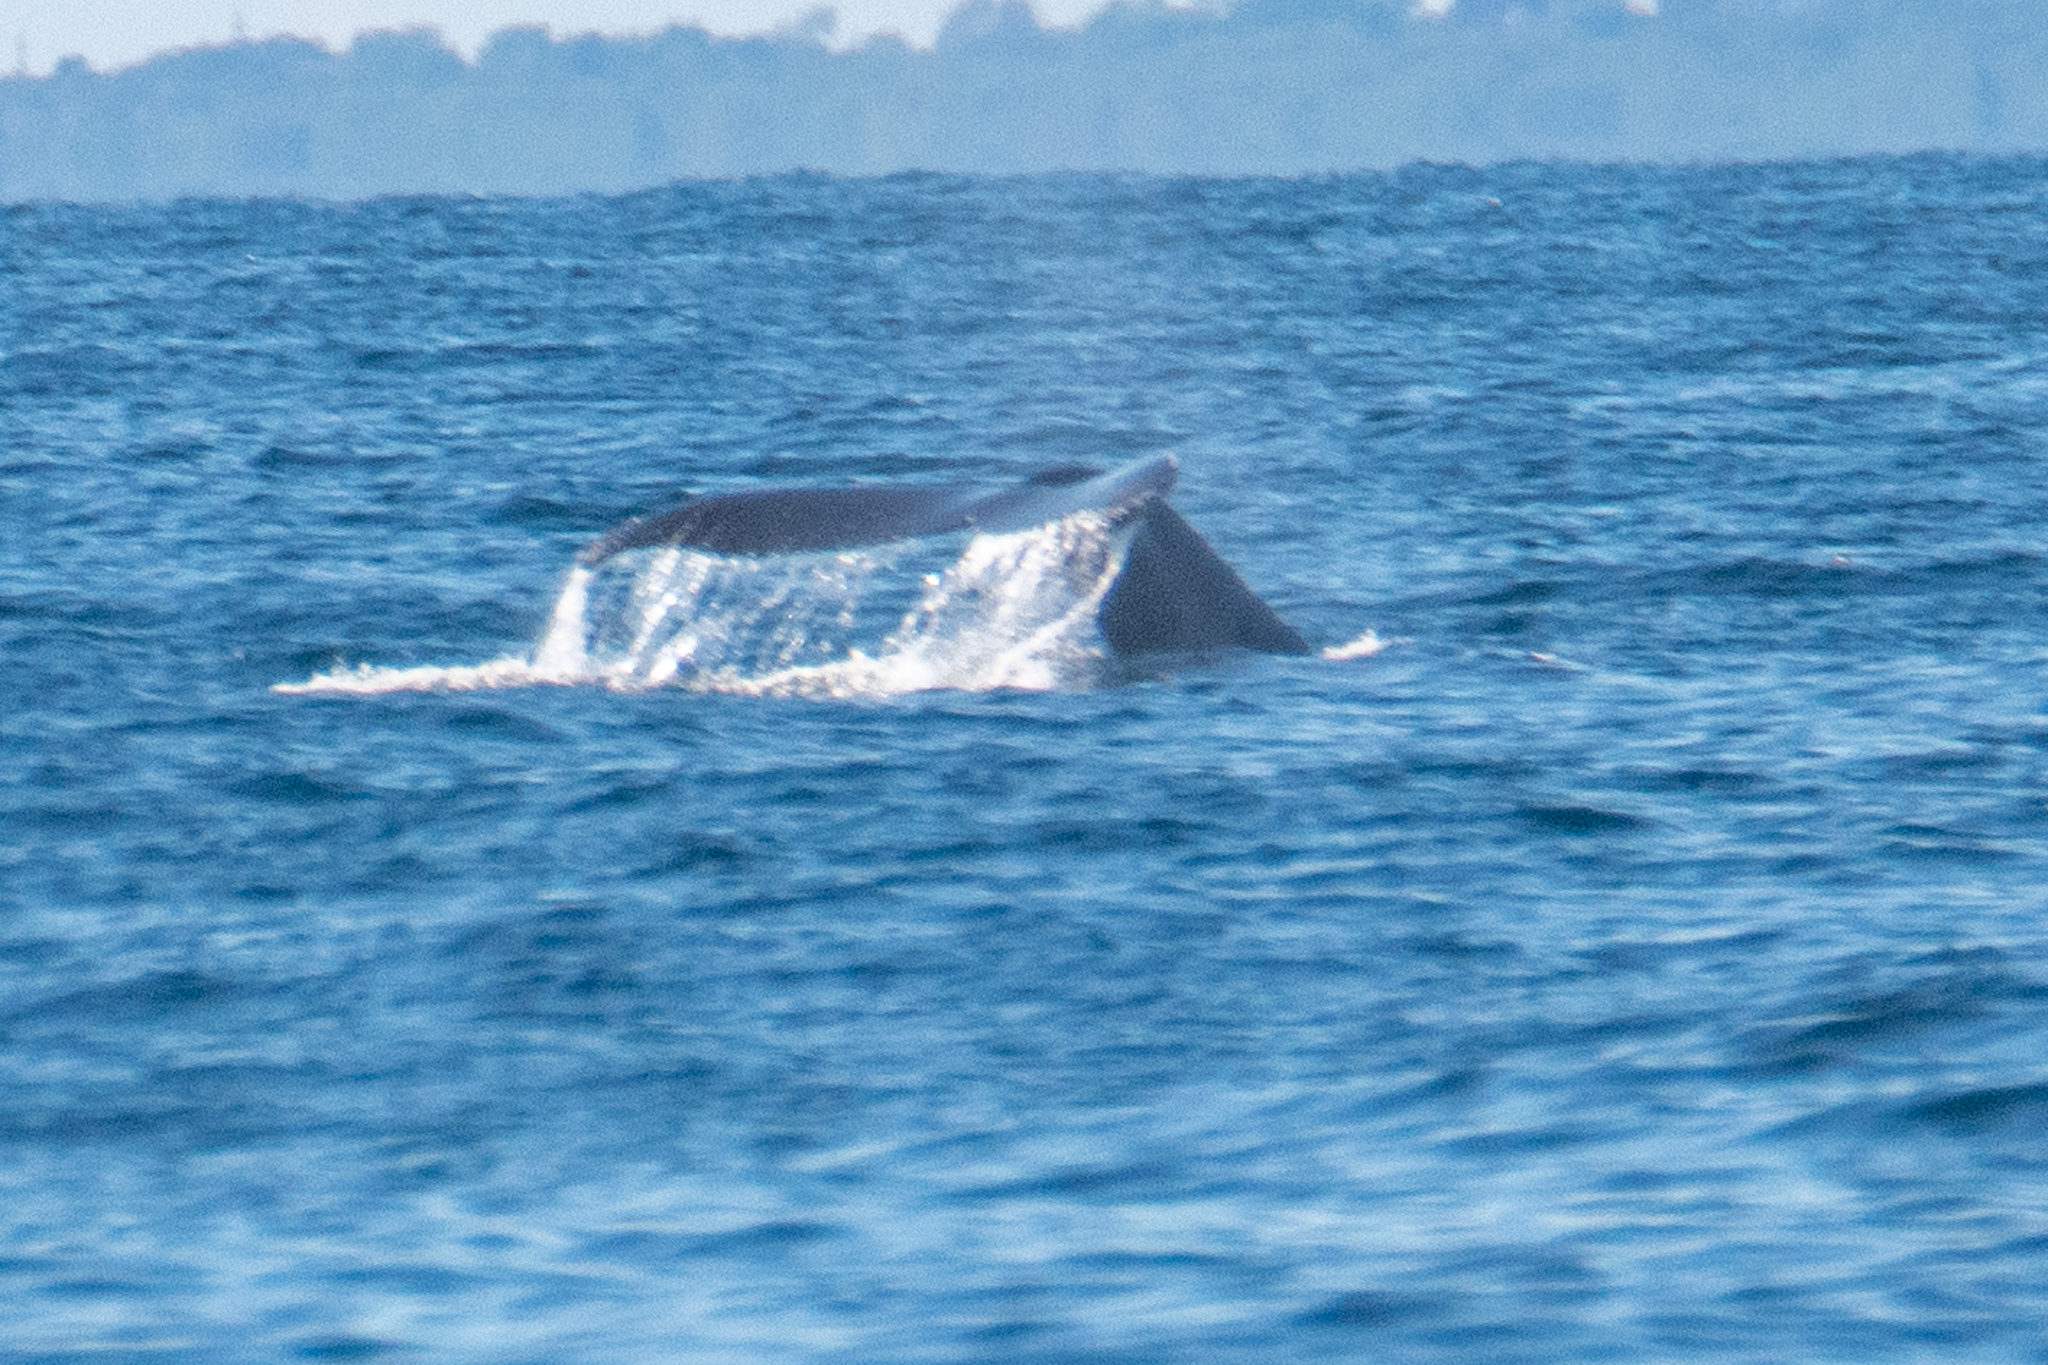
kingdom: Animalia
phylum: Chordata
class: Mammalia
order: Cetacea
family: Balaenopteridae
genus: Megaptera
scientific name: Megaptera novaeangliae
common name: Humpback whale
